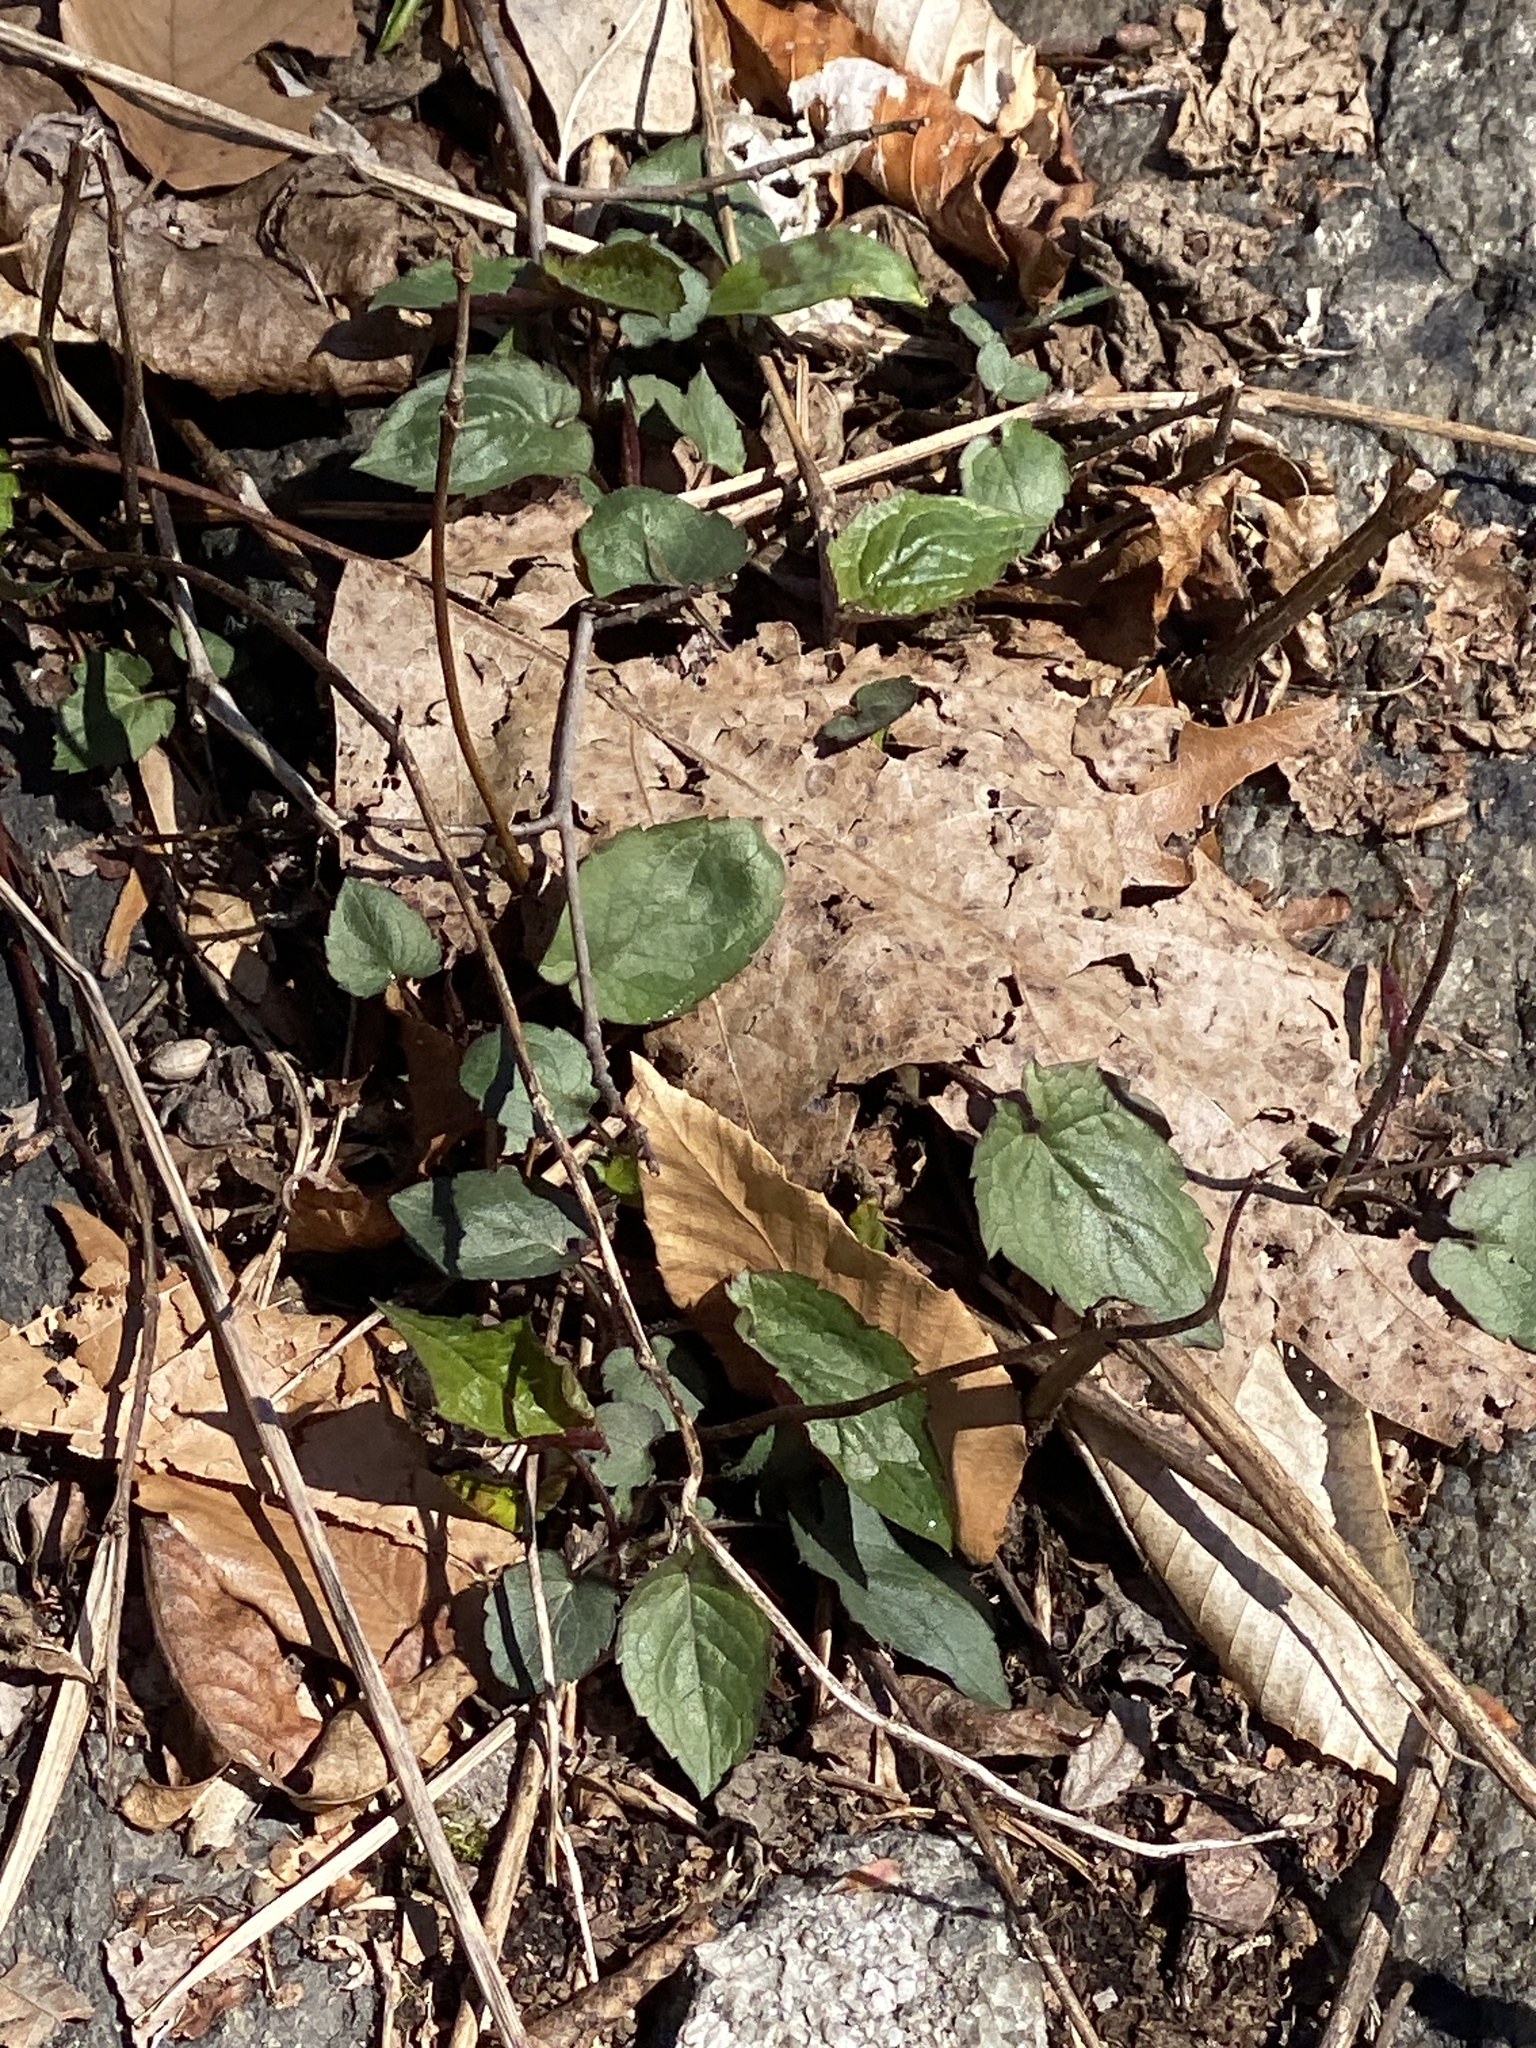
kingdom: Plantae
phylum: Tracheophyta
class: Magnoliopsida
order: Asterales
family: Asteraceae
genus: Eurybia
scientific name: Eurybia divaricata
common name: White wood aster
